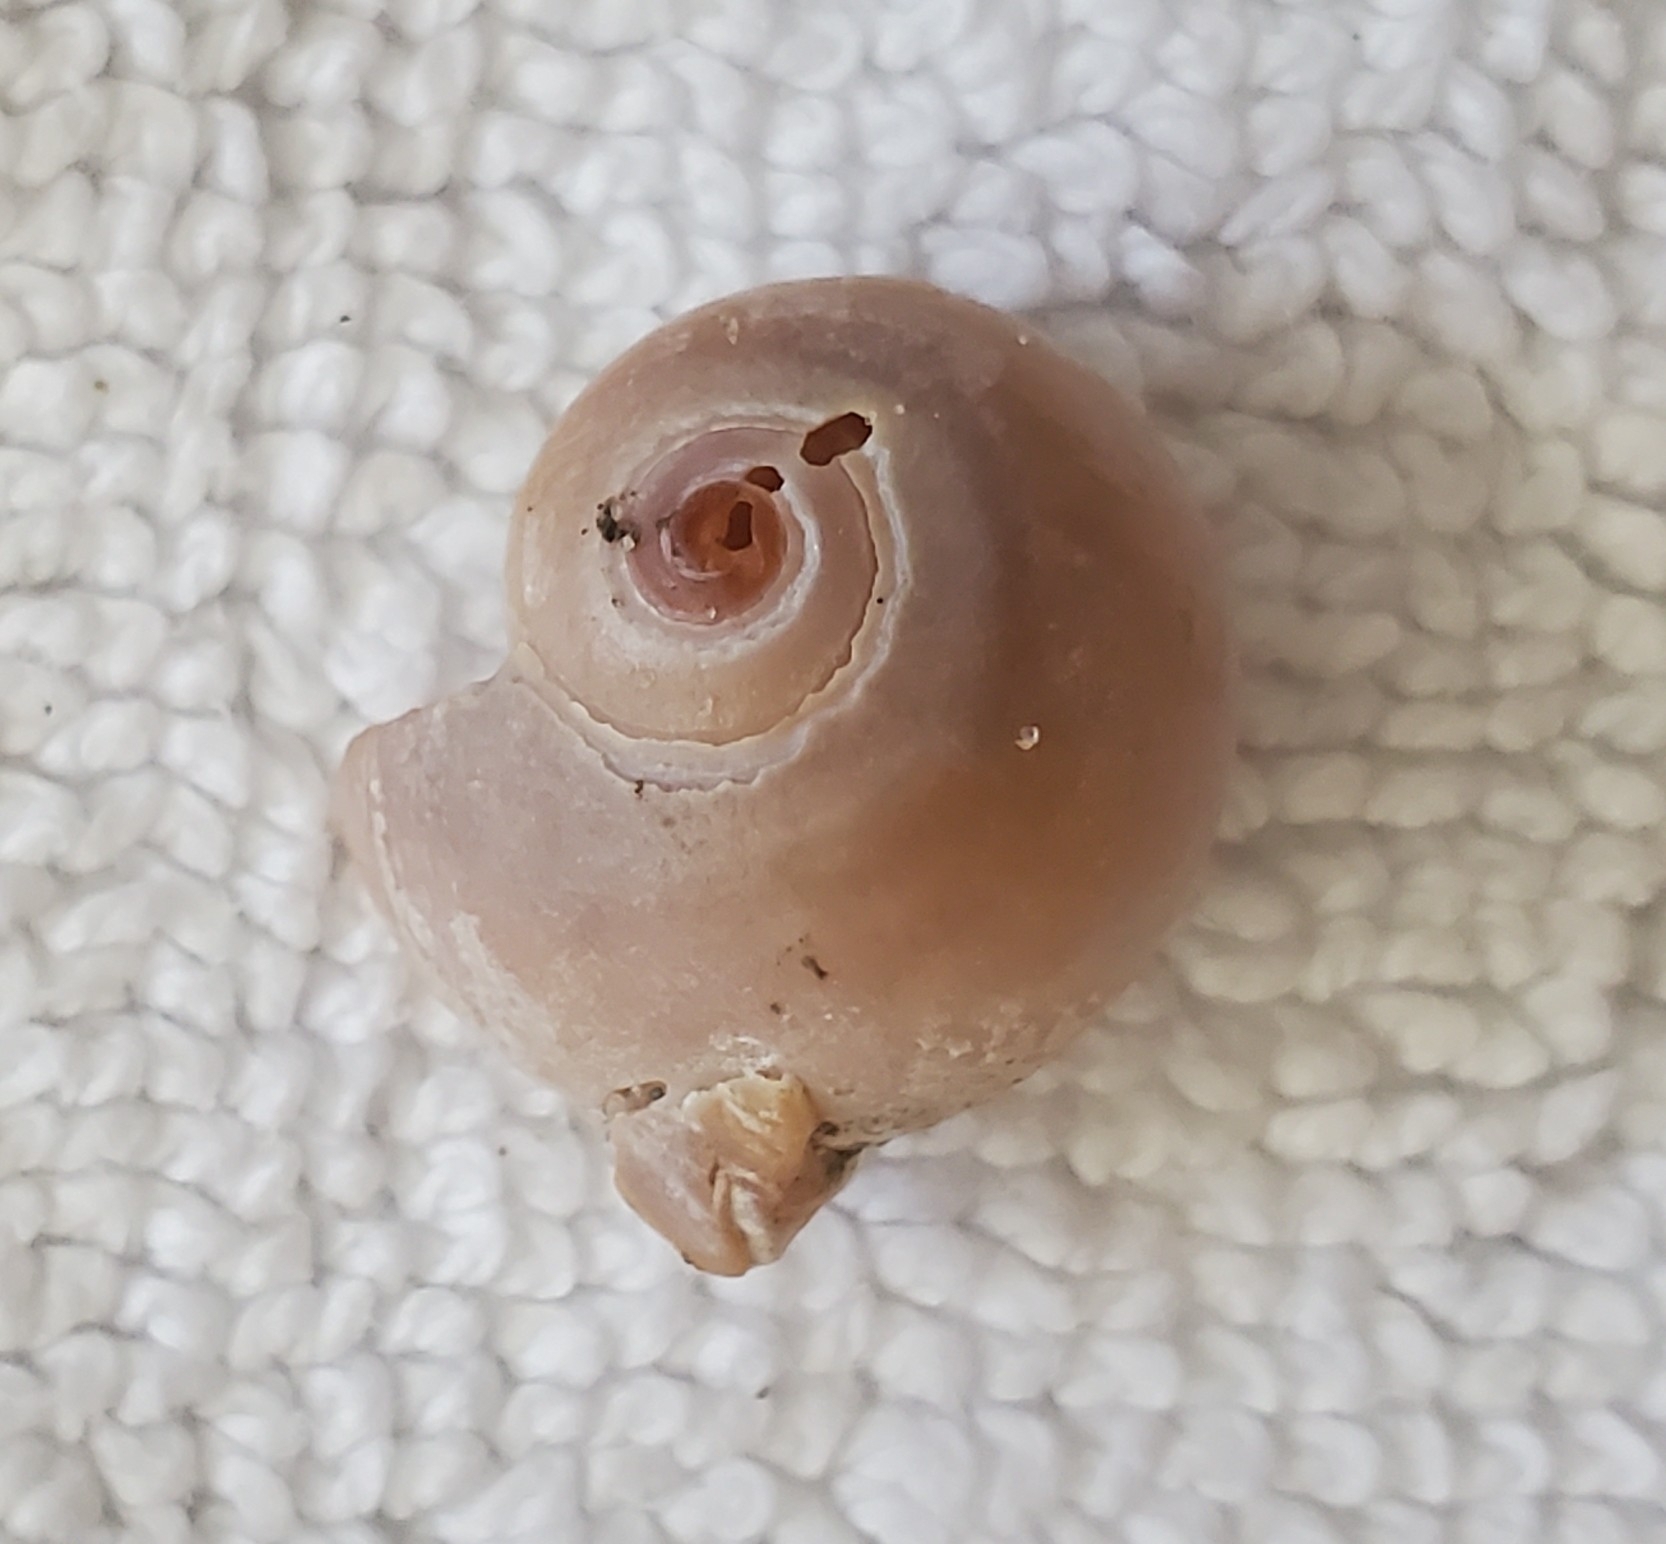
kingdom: Animalia
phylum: Mollusca
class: Gastropoda
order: Littorinimorpha
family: Naticidae
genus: Neverita
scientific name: Neverita duplicata
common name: Lobed moonsnail
